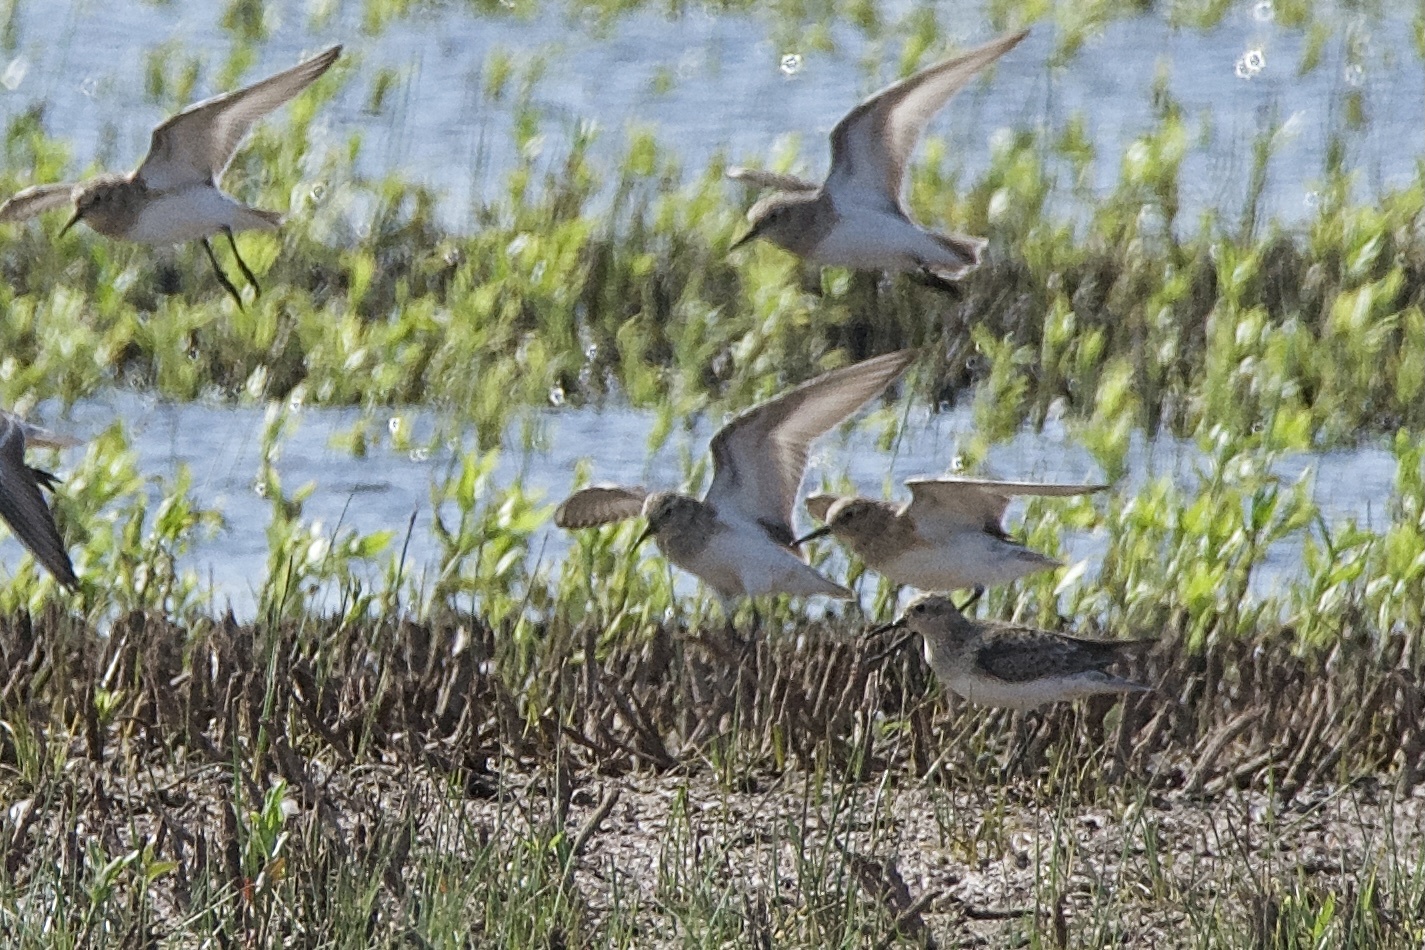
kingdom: Animalia
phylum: Chordata
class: Aves
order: Charadriiformes
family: Scolopacidae
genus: Calidris
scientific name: Calidris bairdii
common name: Baird's sandpiper
